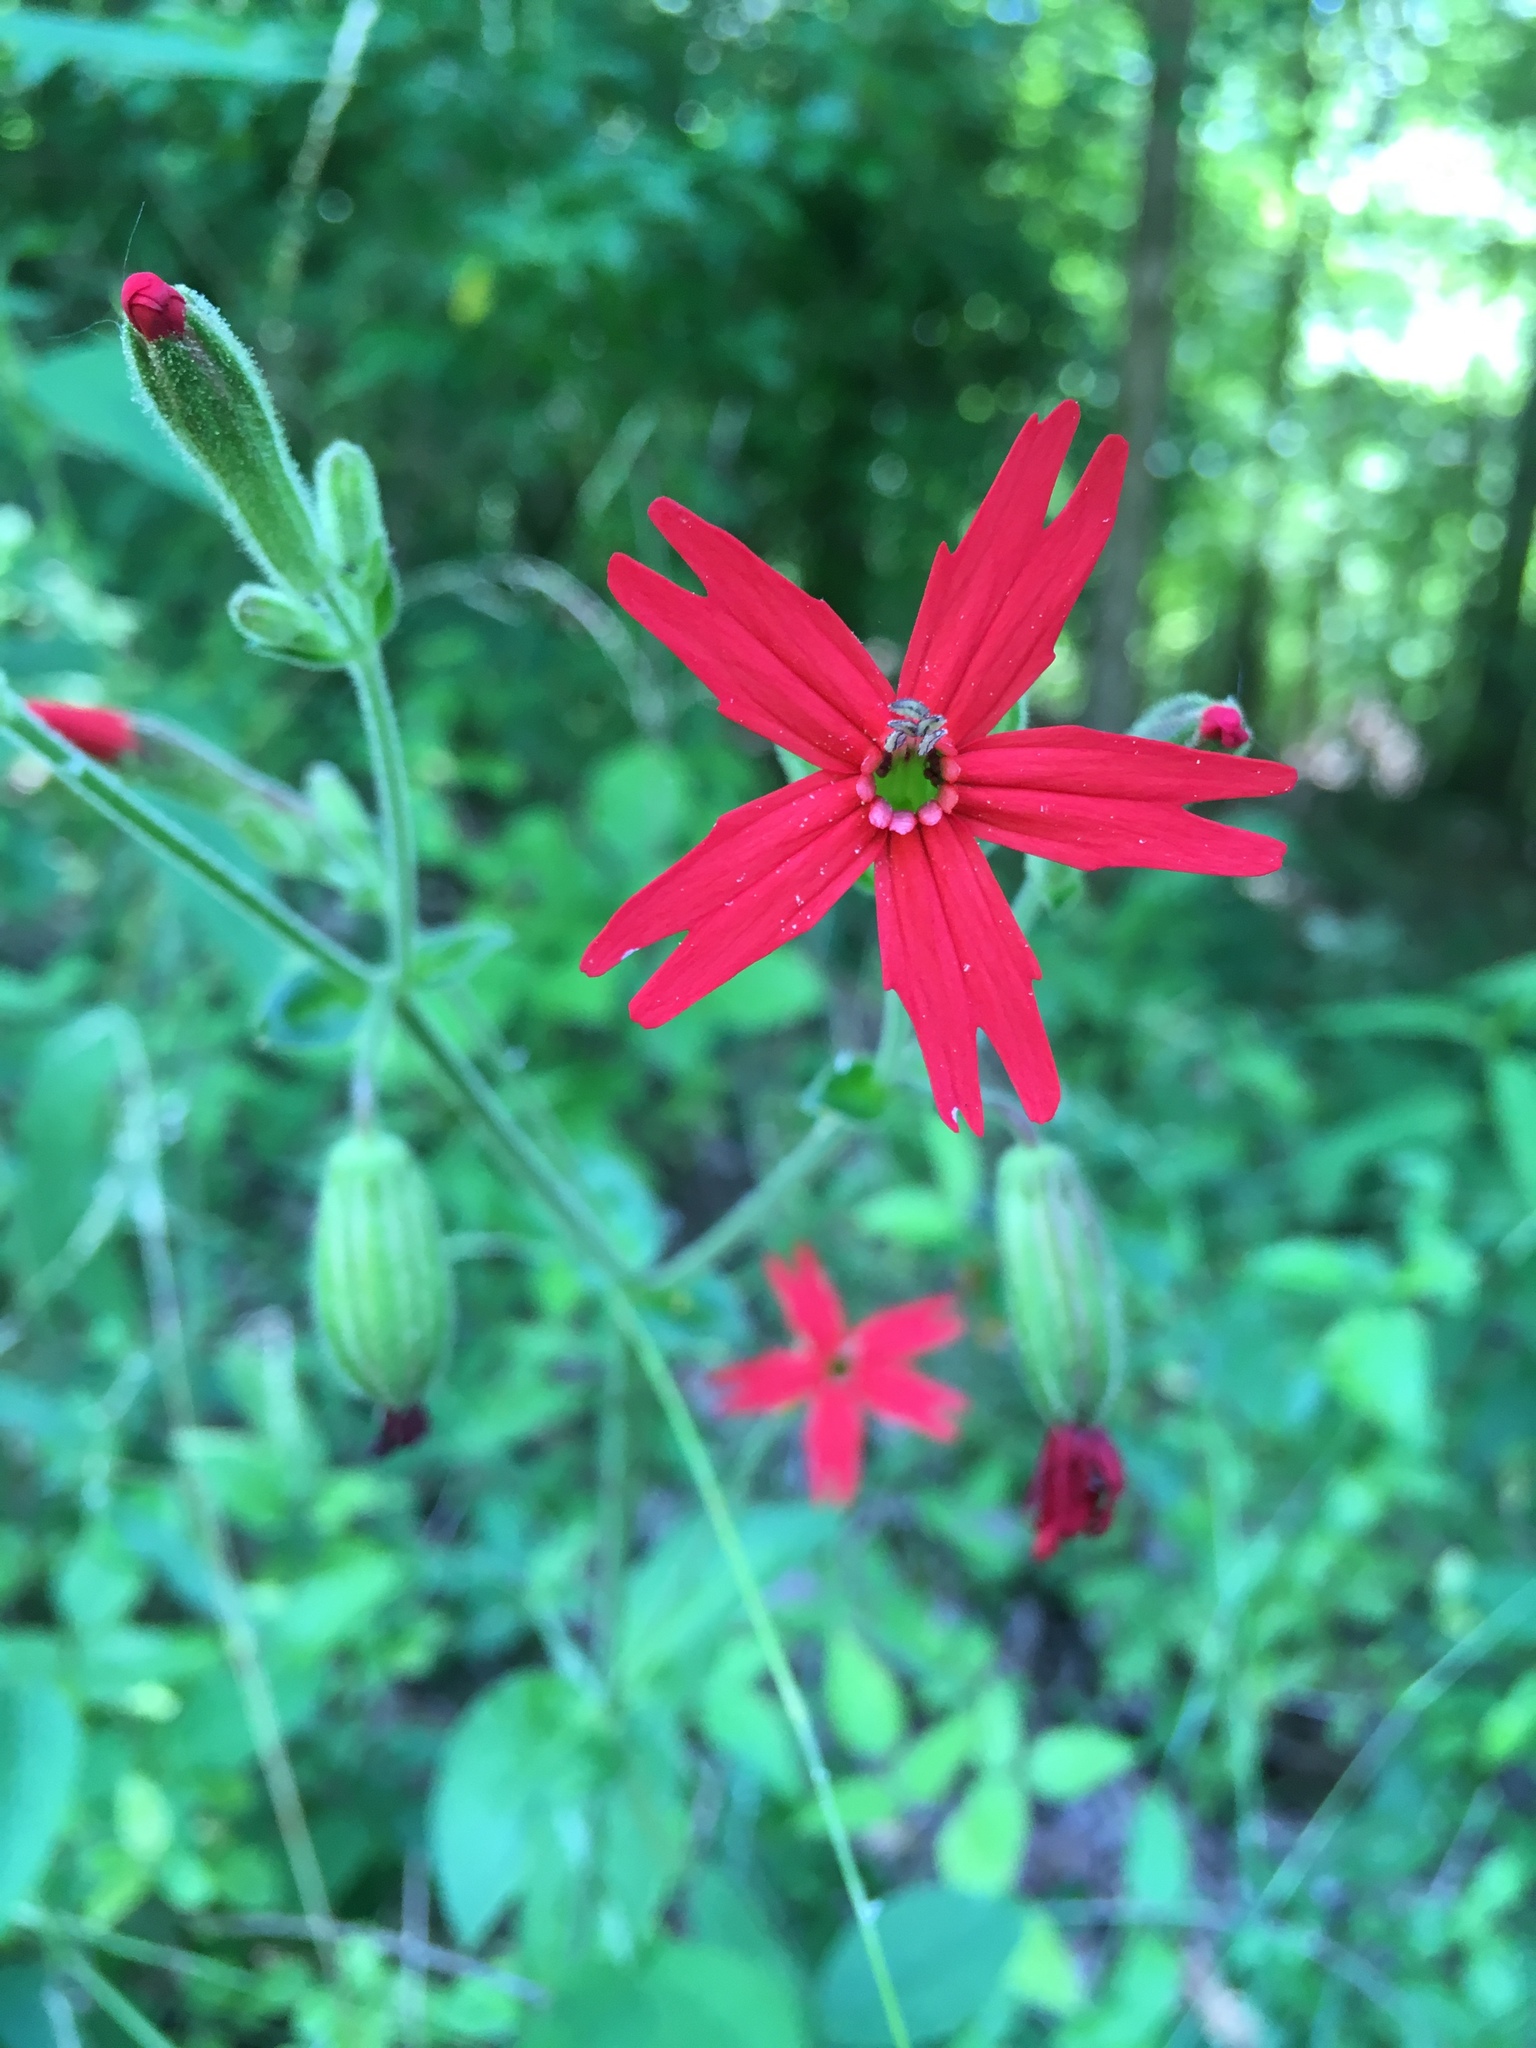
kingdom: Plantae
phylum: Tracheophyta
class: Magnoliopsida
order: Caryophyllales
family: Caryophyllaceae
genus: Silene
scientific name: Silene virginica
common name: Fire-pink
